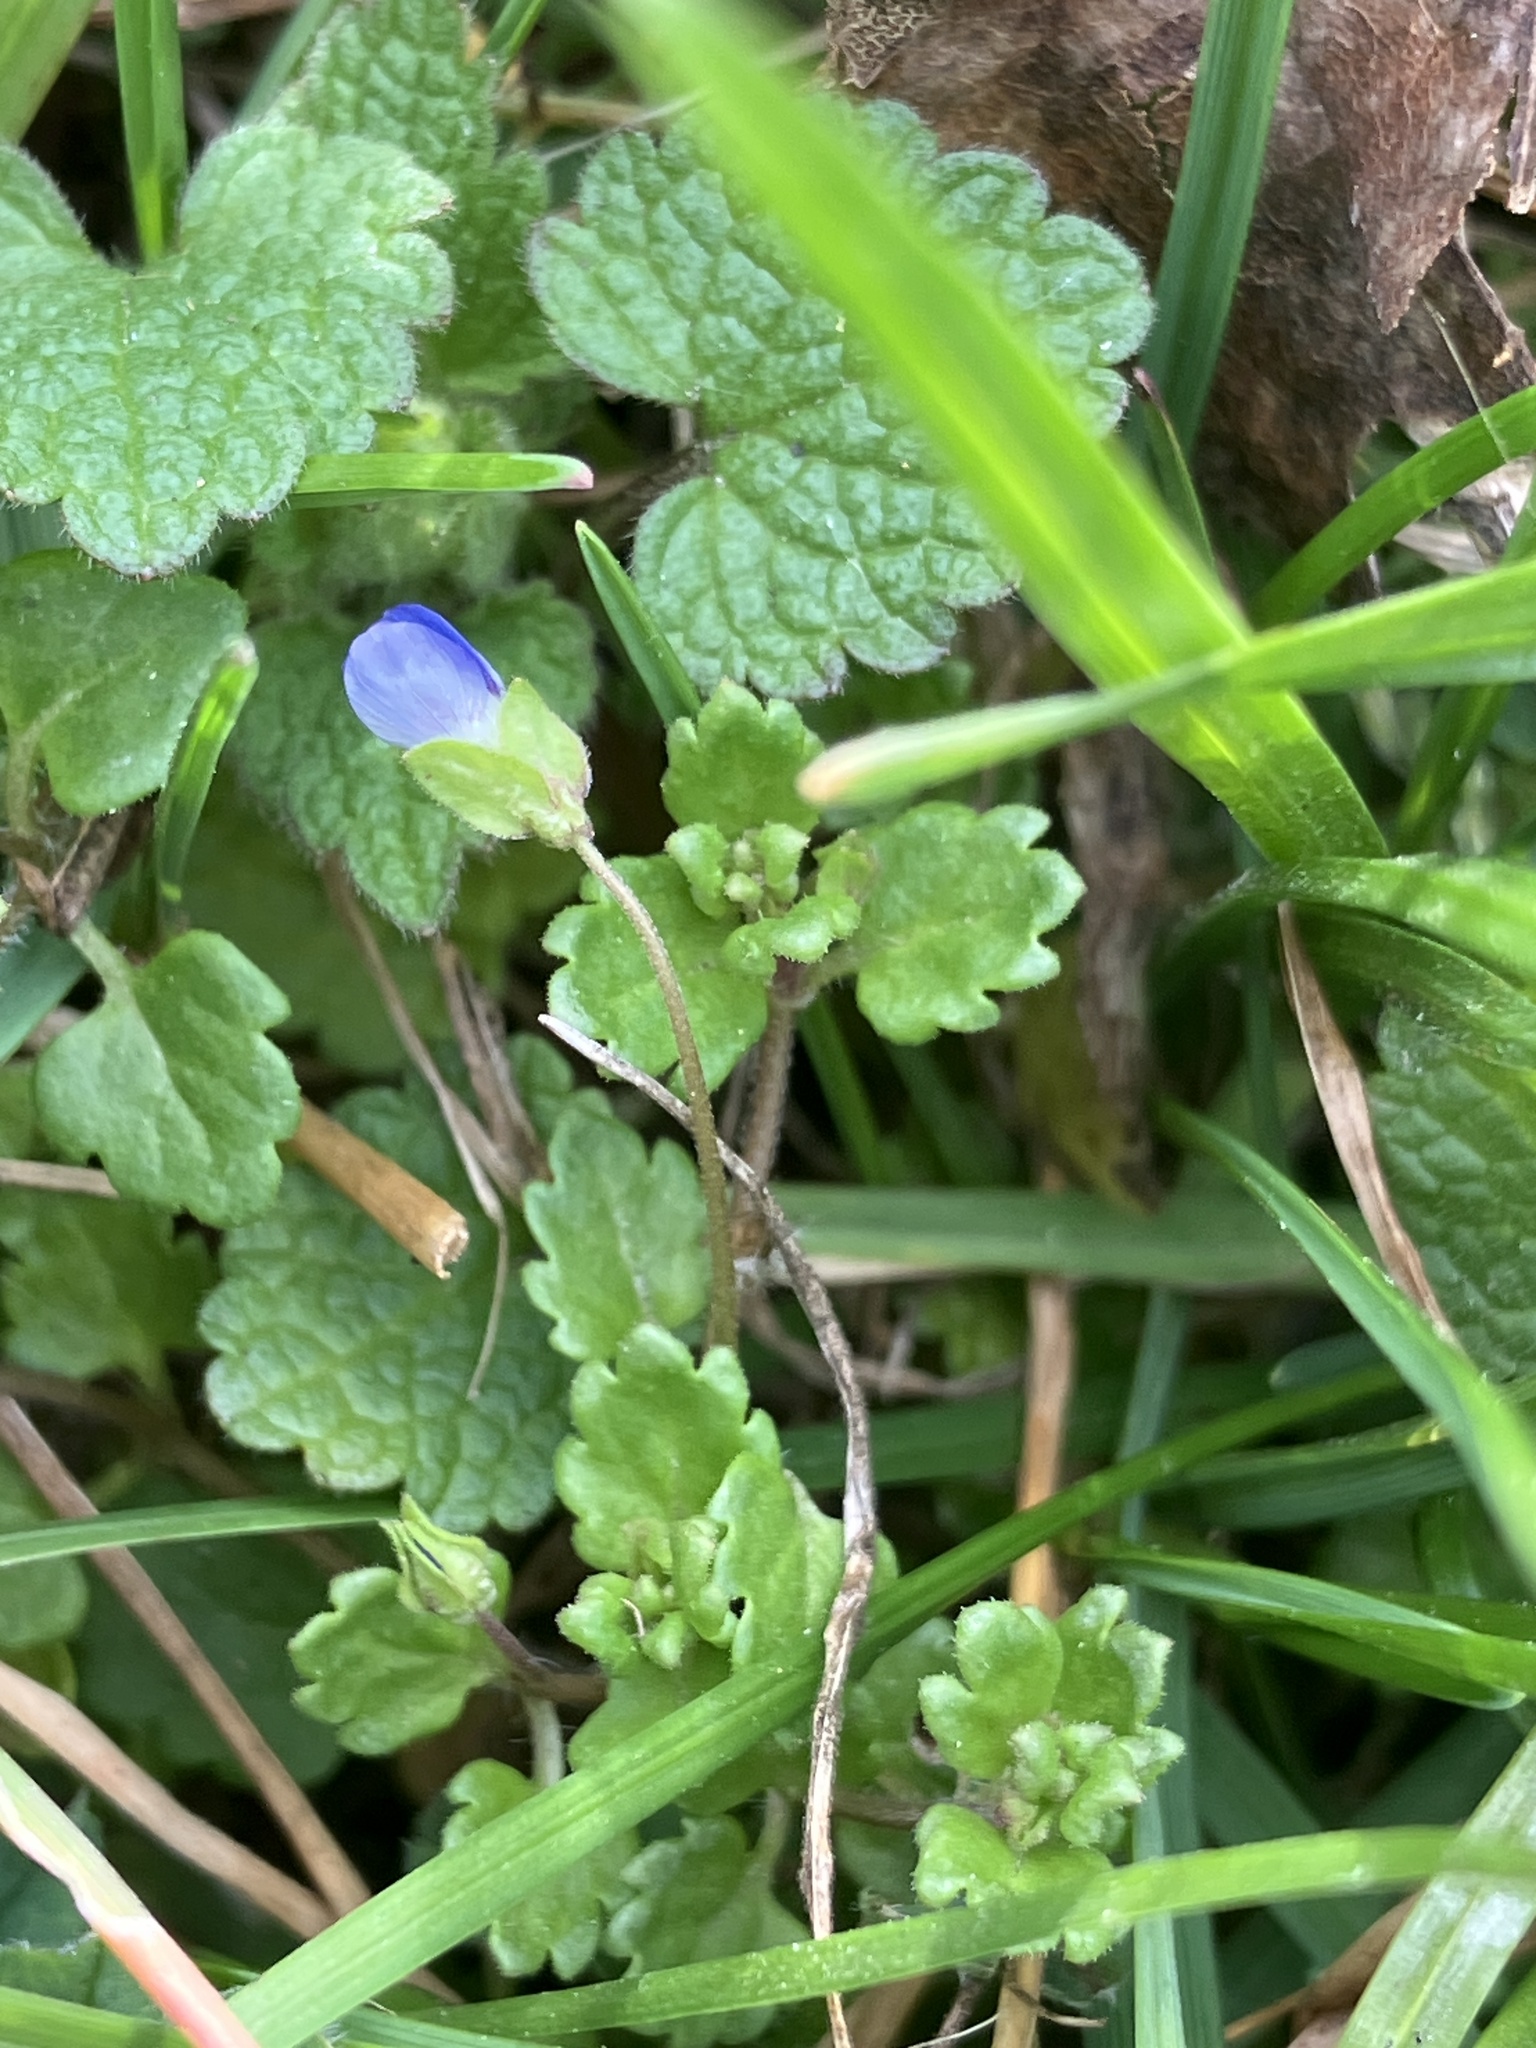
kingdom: Plantae
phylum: Tracheophyta
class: Magnoliopsida
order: Lamiales
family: Plantaginaceae
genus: Veronica
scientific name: Veronica polita
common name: Grey field-speedwell
